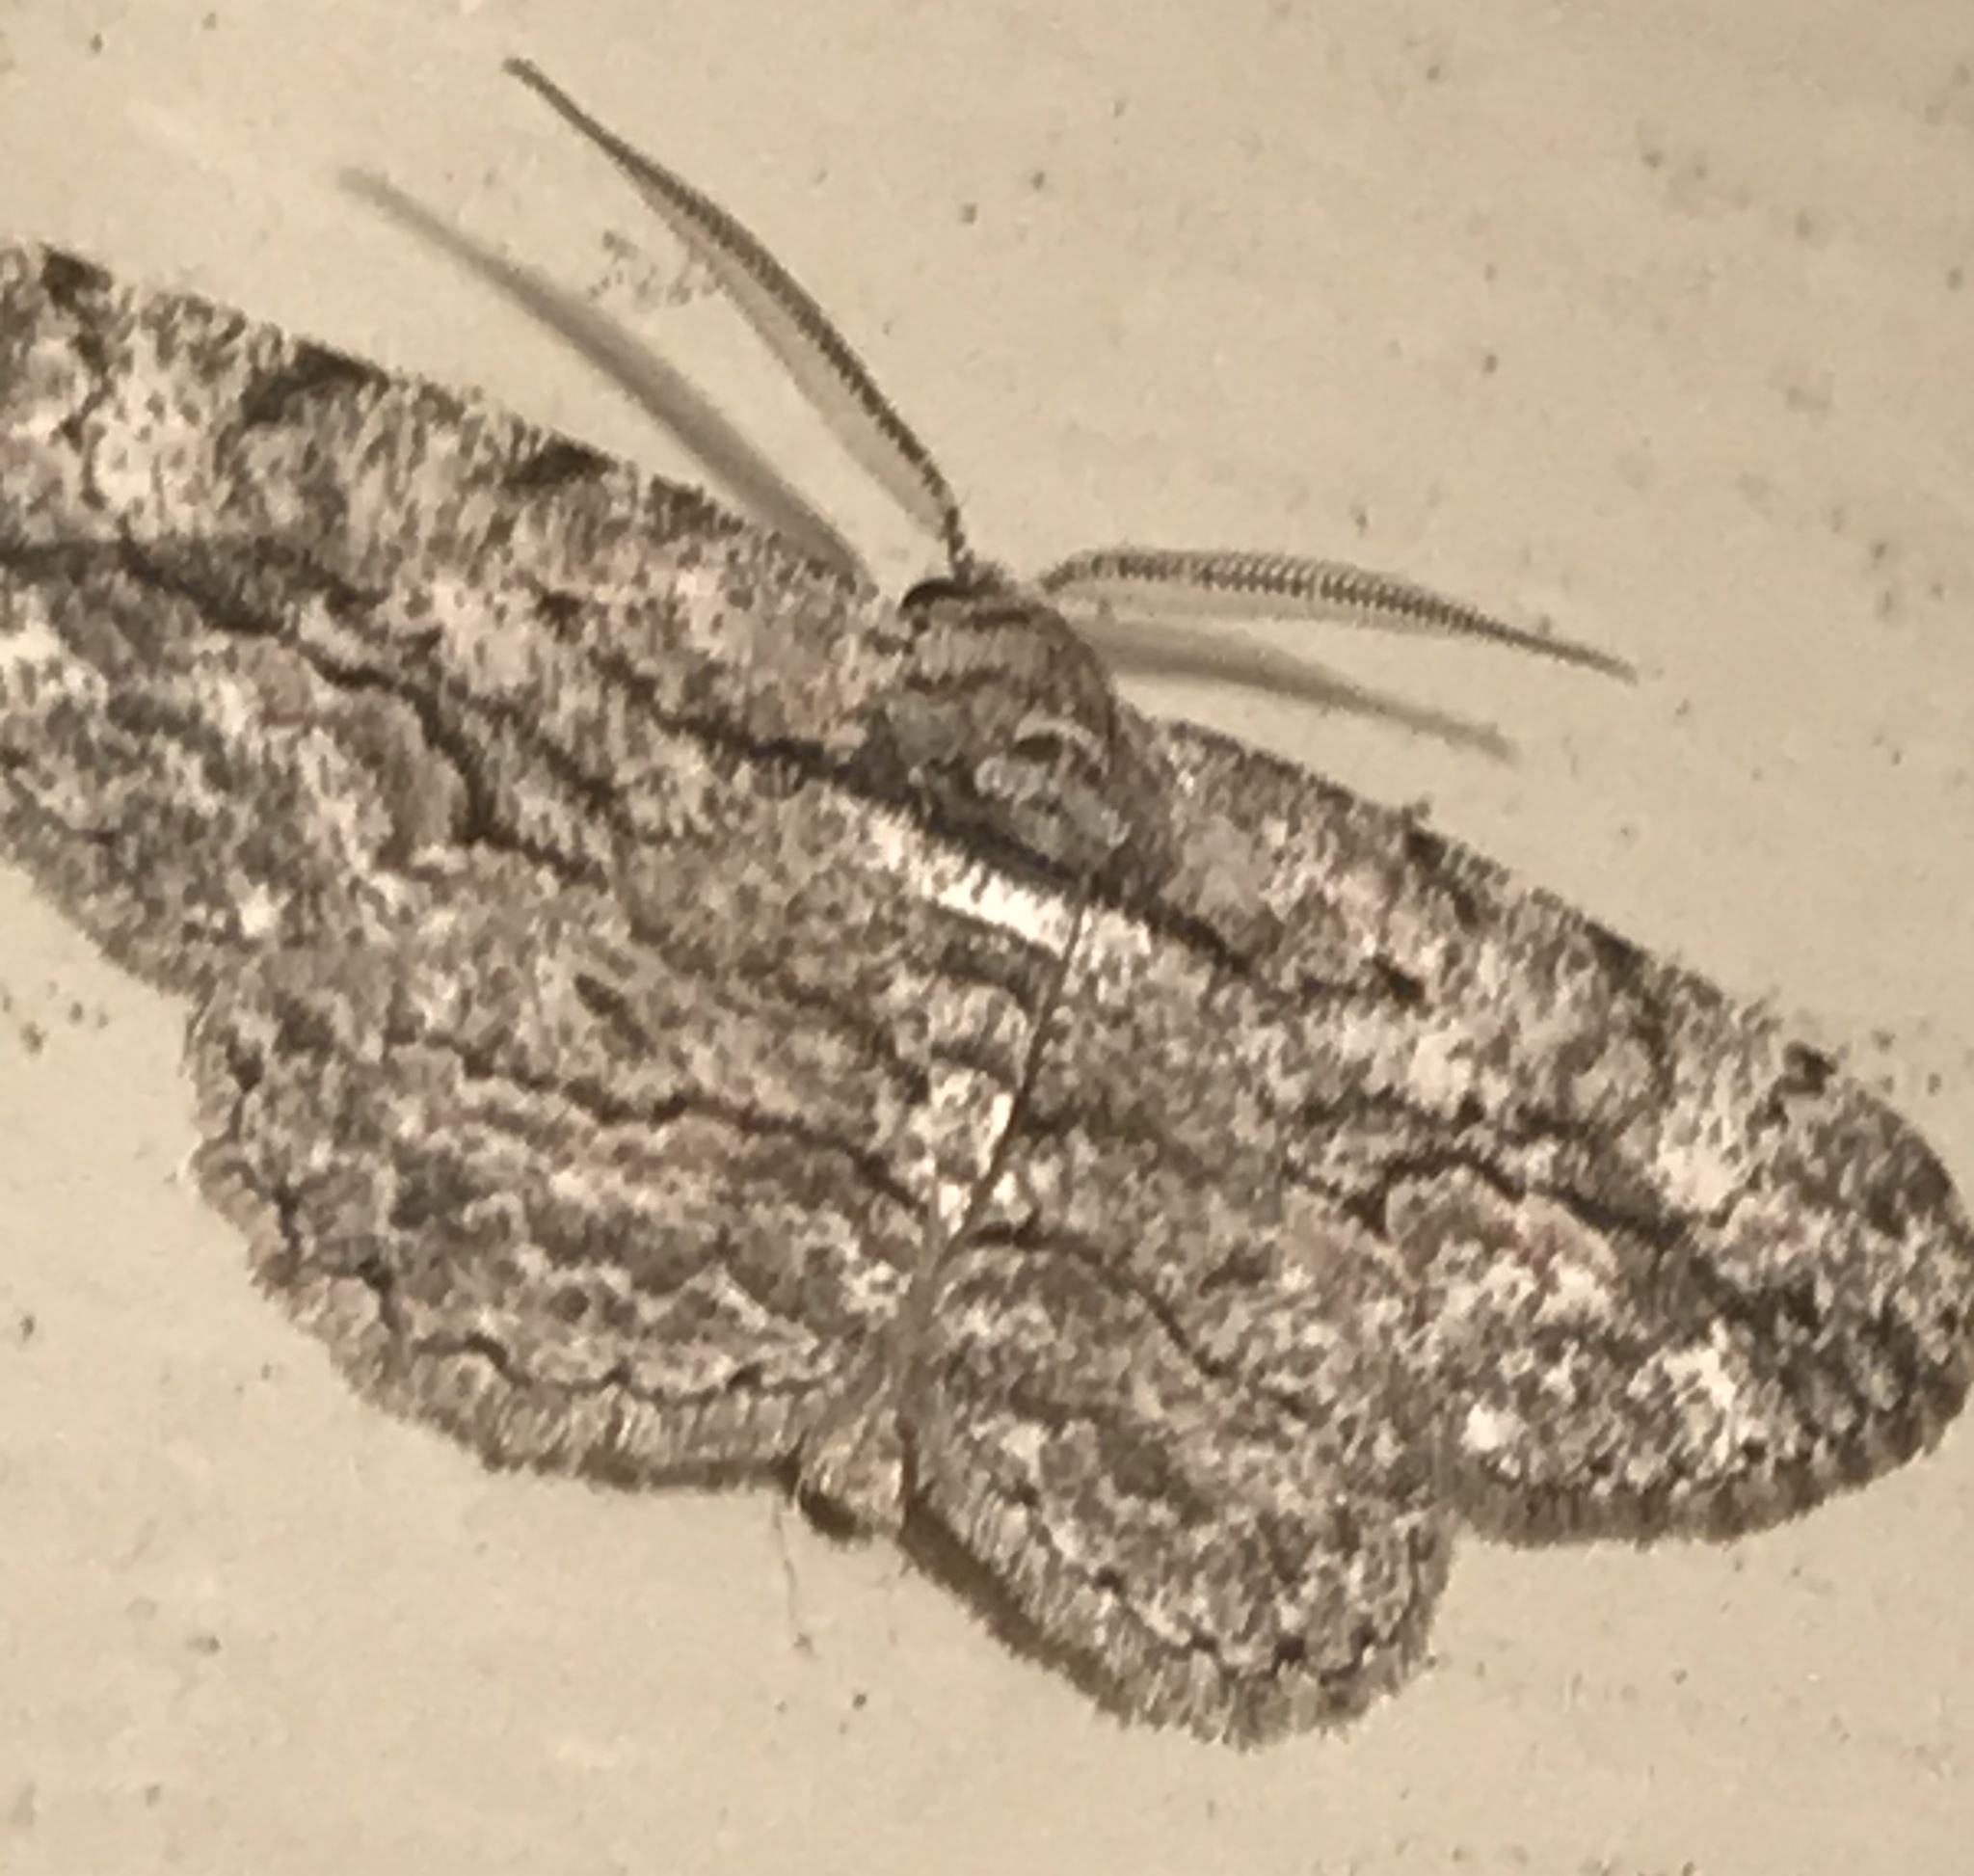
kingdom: Animalia
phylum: Arthropoda
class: Insecta
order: Lepidoptera
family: Geometridae
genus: Anavitrinella
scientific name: Anavitrinella pampinaria
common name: Common gray
